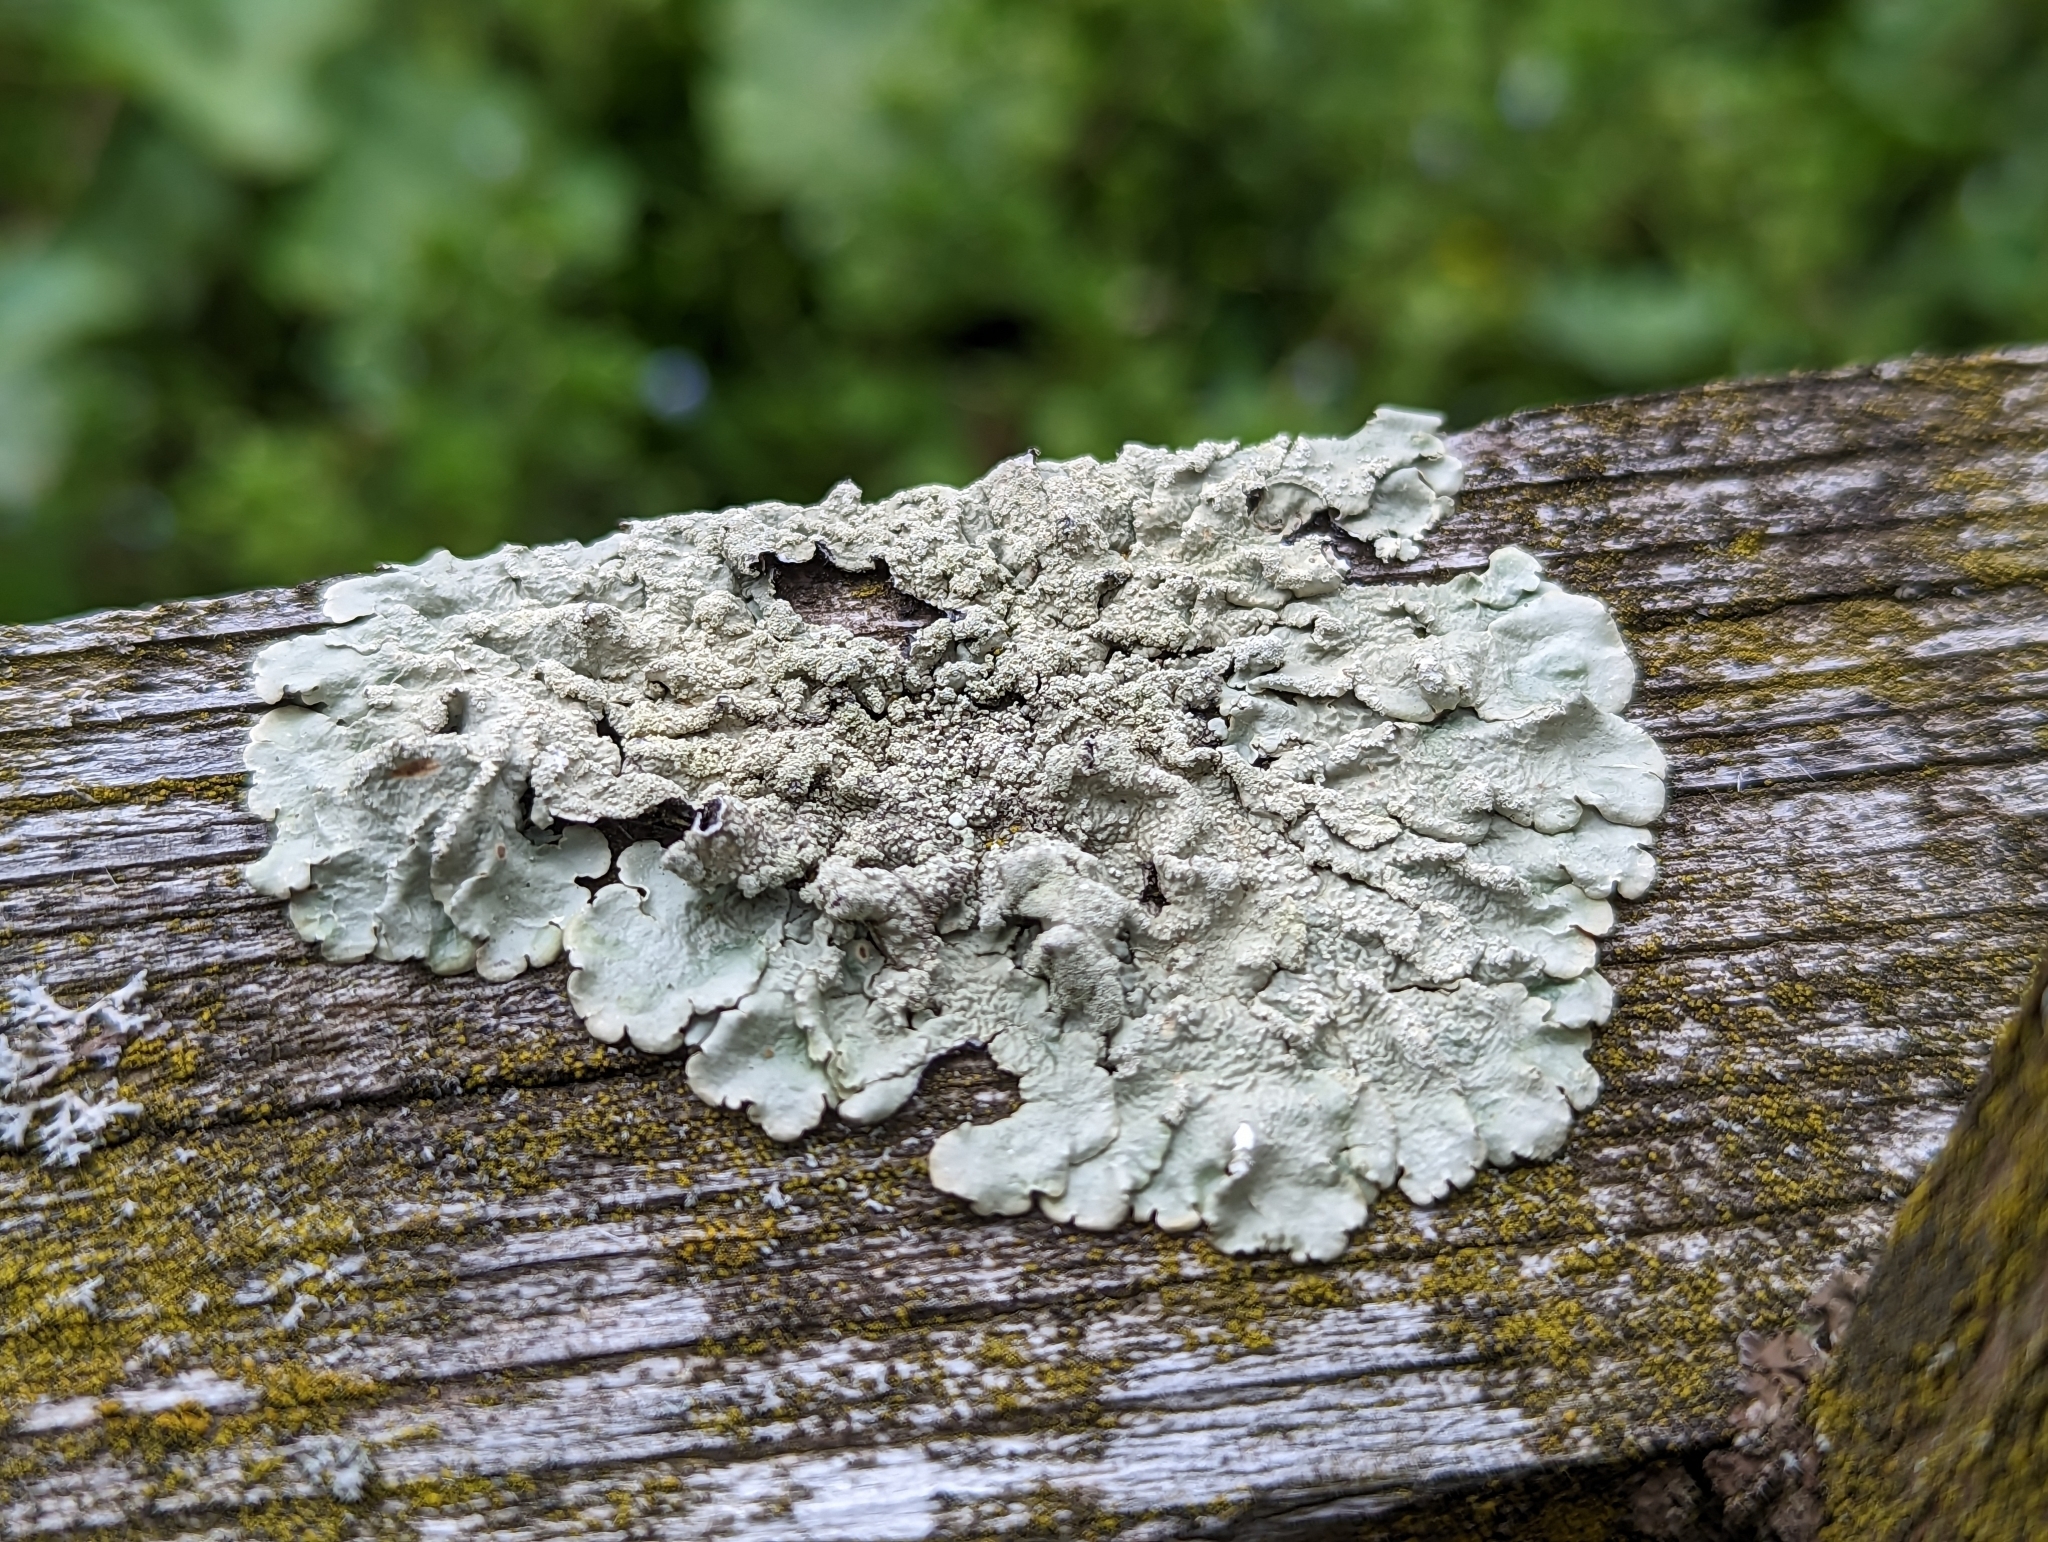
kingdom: Fungi
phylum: Ascomycota
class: Lecanoromycetes
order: Lecanorales
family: Parmeliaceae
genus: Flavoparmelia
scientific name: Flavoparmelia caperata
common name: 40-mile per hour lichen
